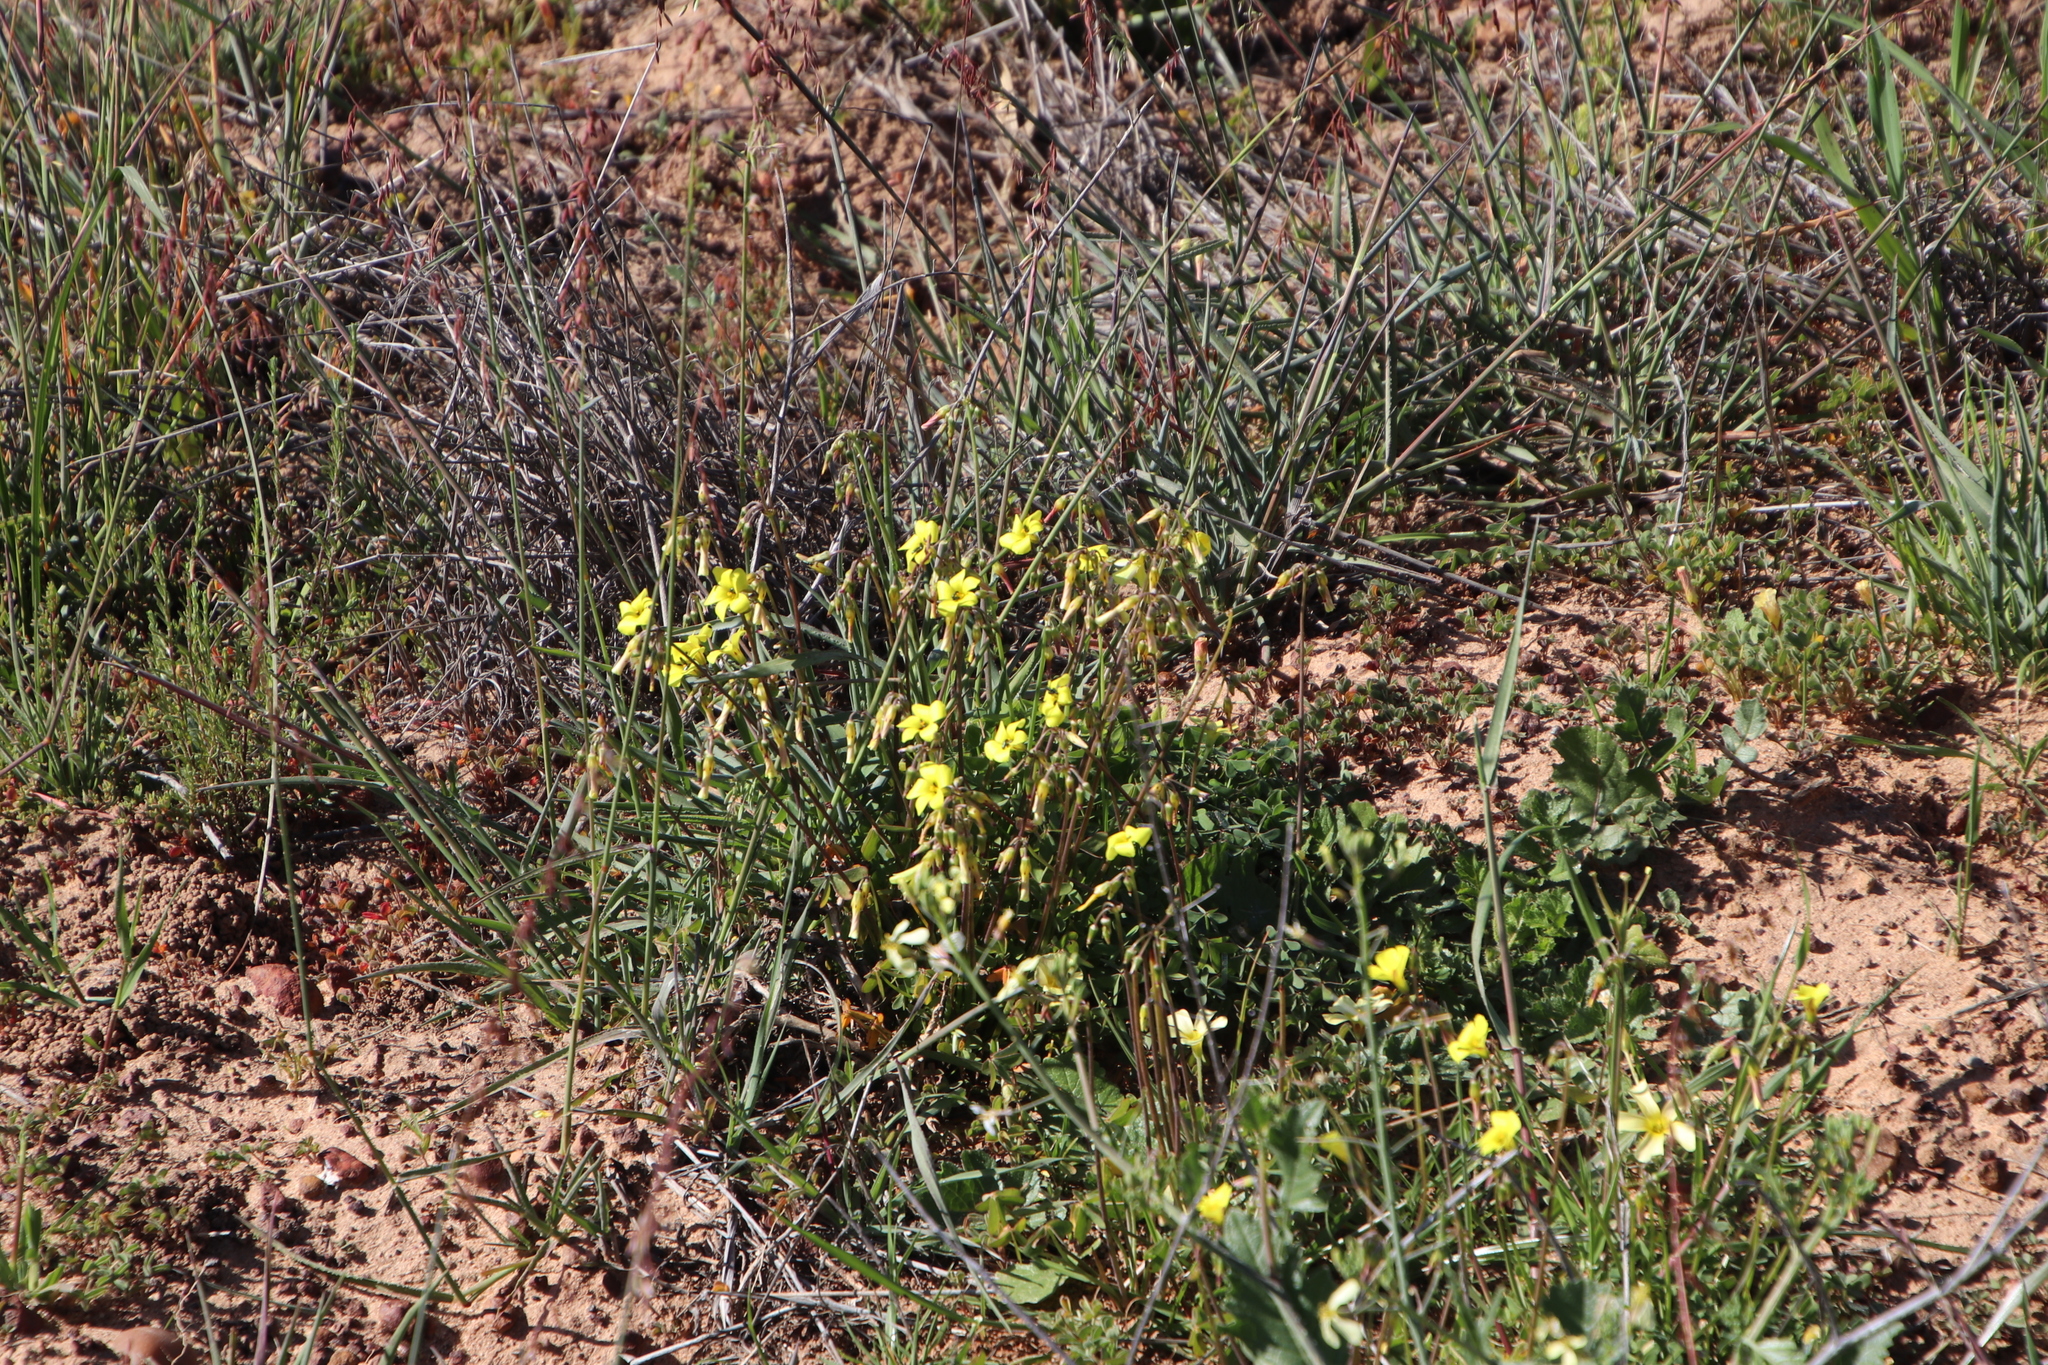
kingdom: Plantae
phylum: Tracheophyta
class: Magnoliopsida
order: Oxalidales
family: Oxalidaceae
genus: Oxalis
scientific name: Oxalis pes-caprae
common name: Bermuda-buttercup
